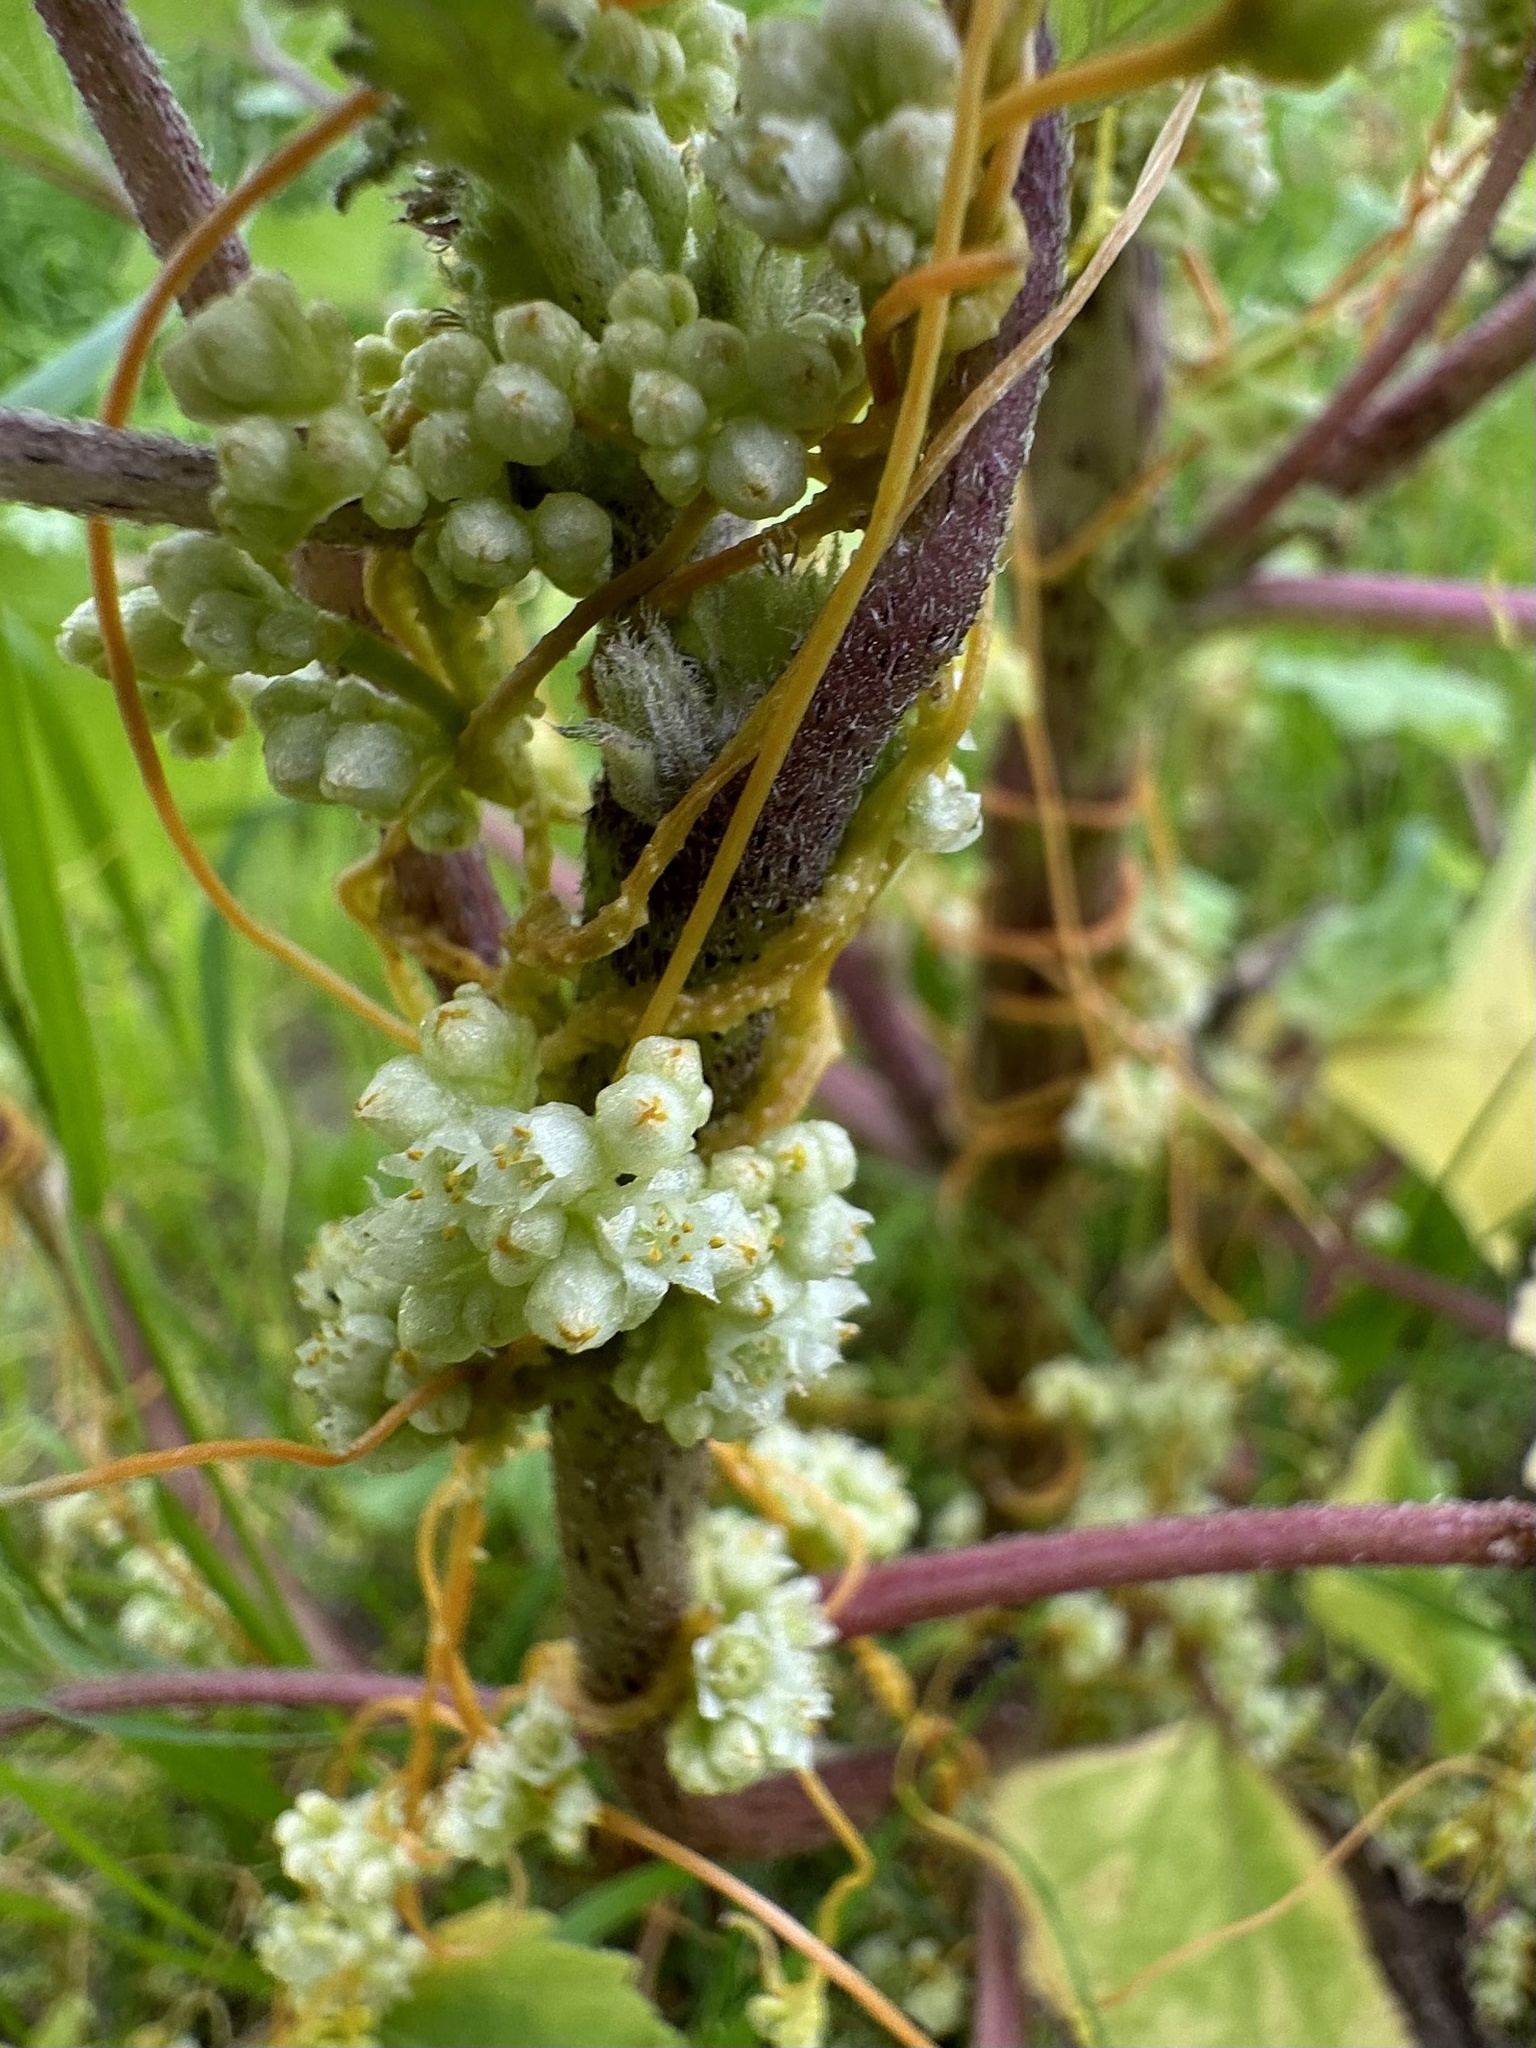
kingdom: Plantae
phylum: Tracheophyta
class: Magnoliopsida
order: Solanales
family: Convolvulaceae
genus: Cuscuta
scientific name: Cuscuta campestris
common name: Yellow dodder
